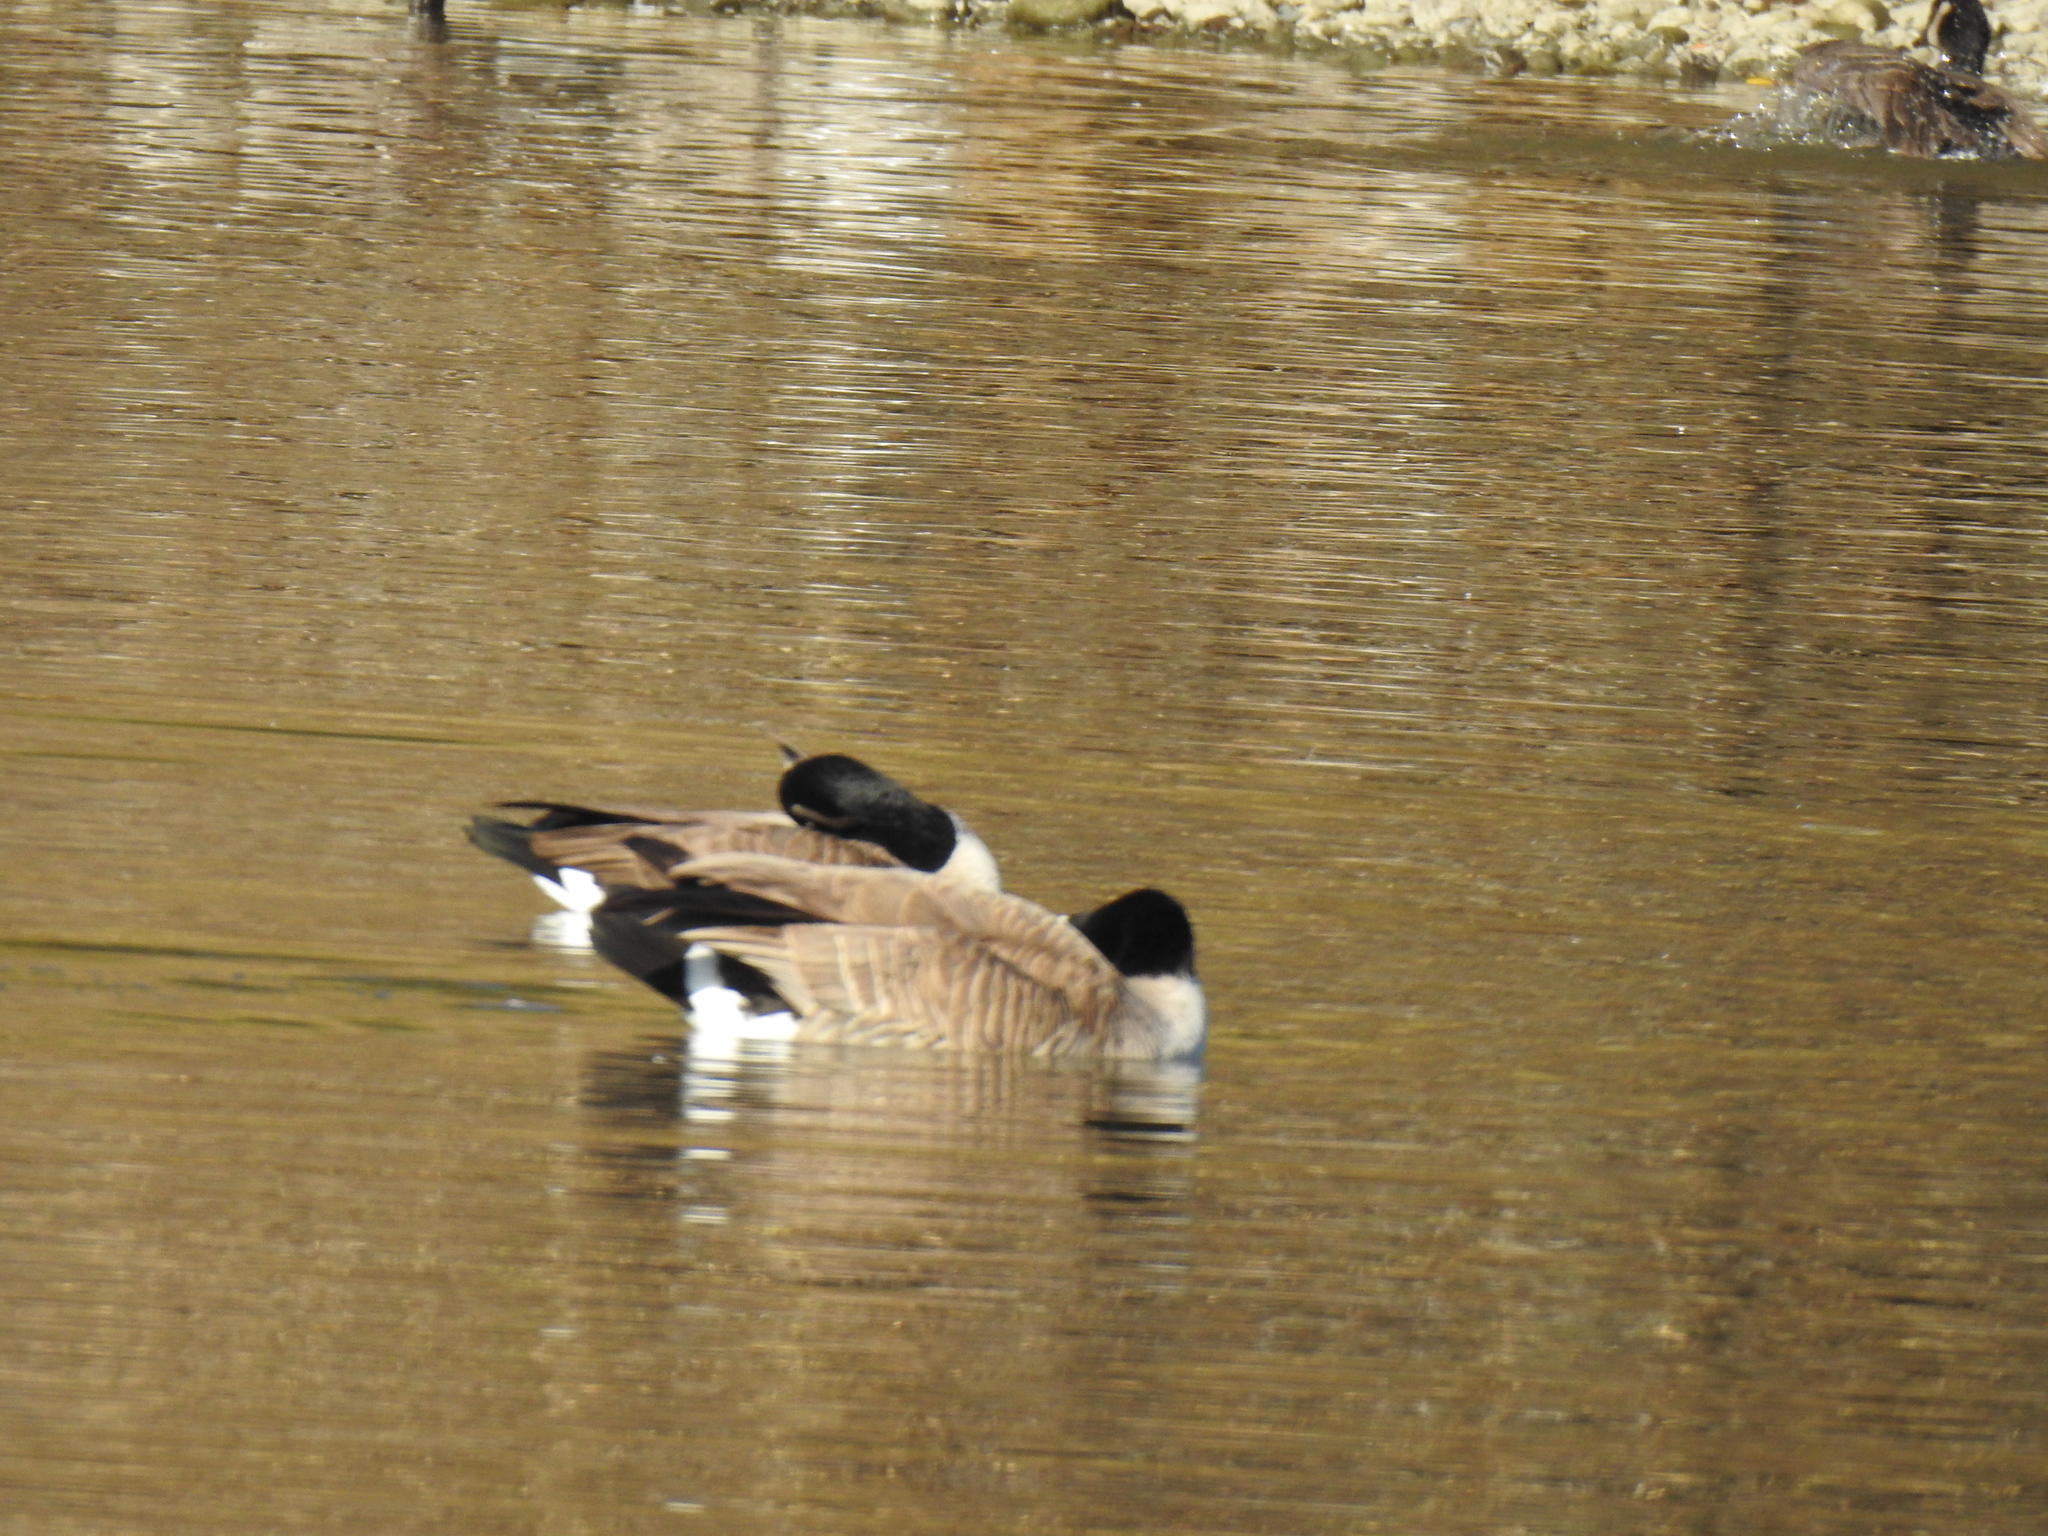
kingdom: Animalia
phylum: Chordata
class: Aves
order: Anseriformes
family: Anatidae
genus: Branta
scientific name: Branta canadensis
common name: Canada goose
